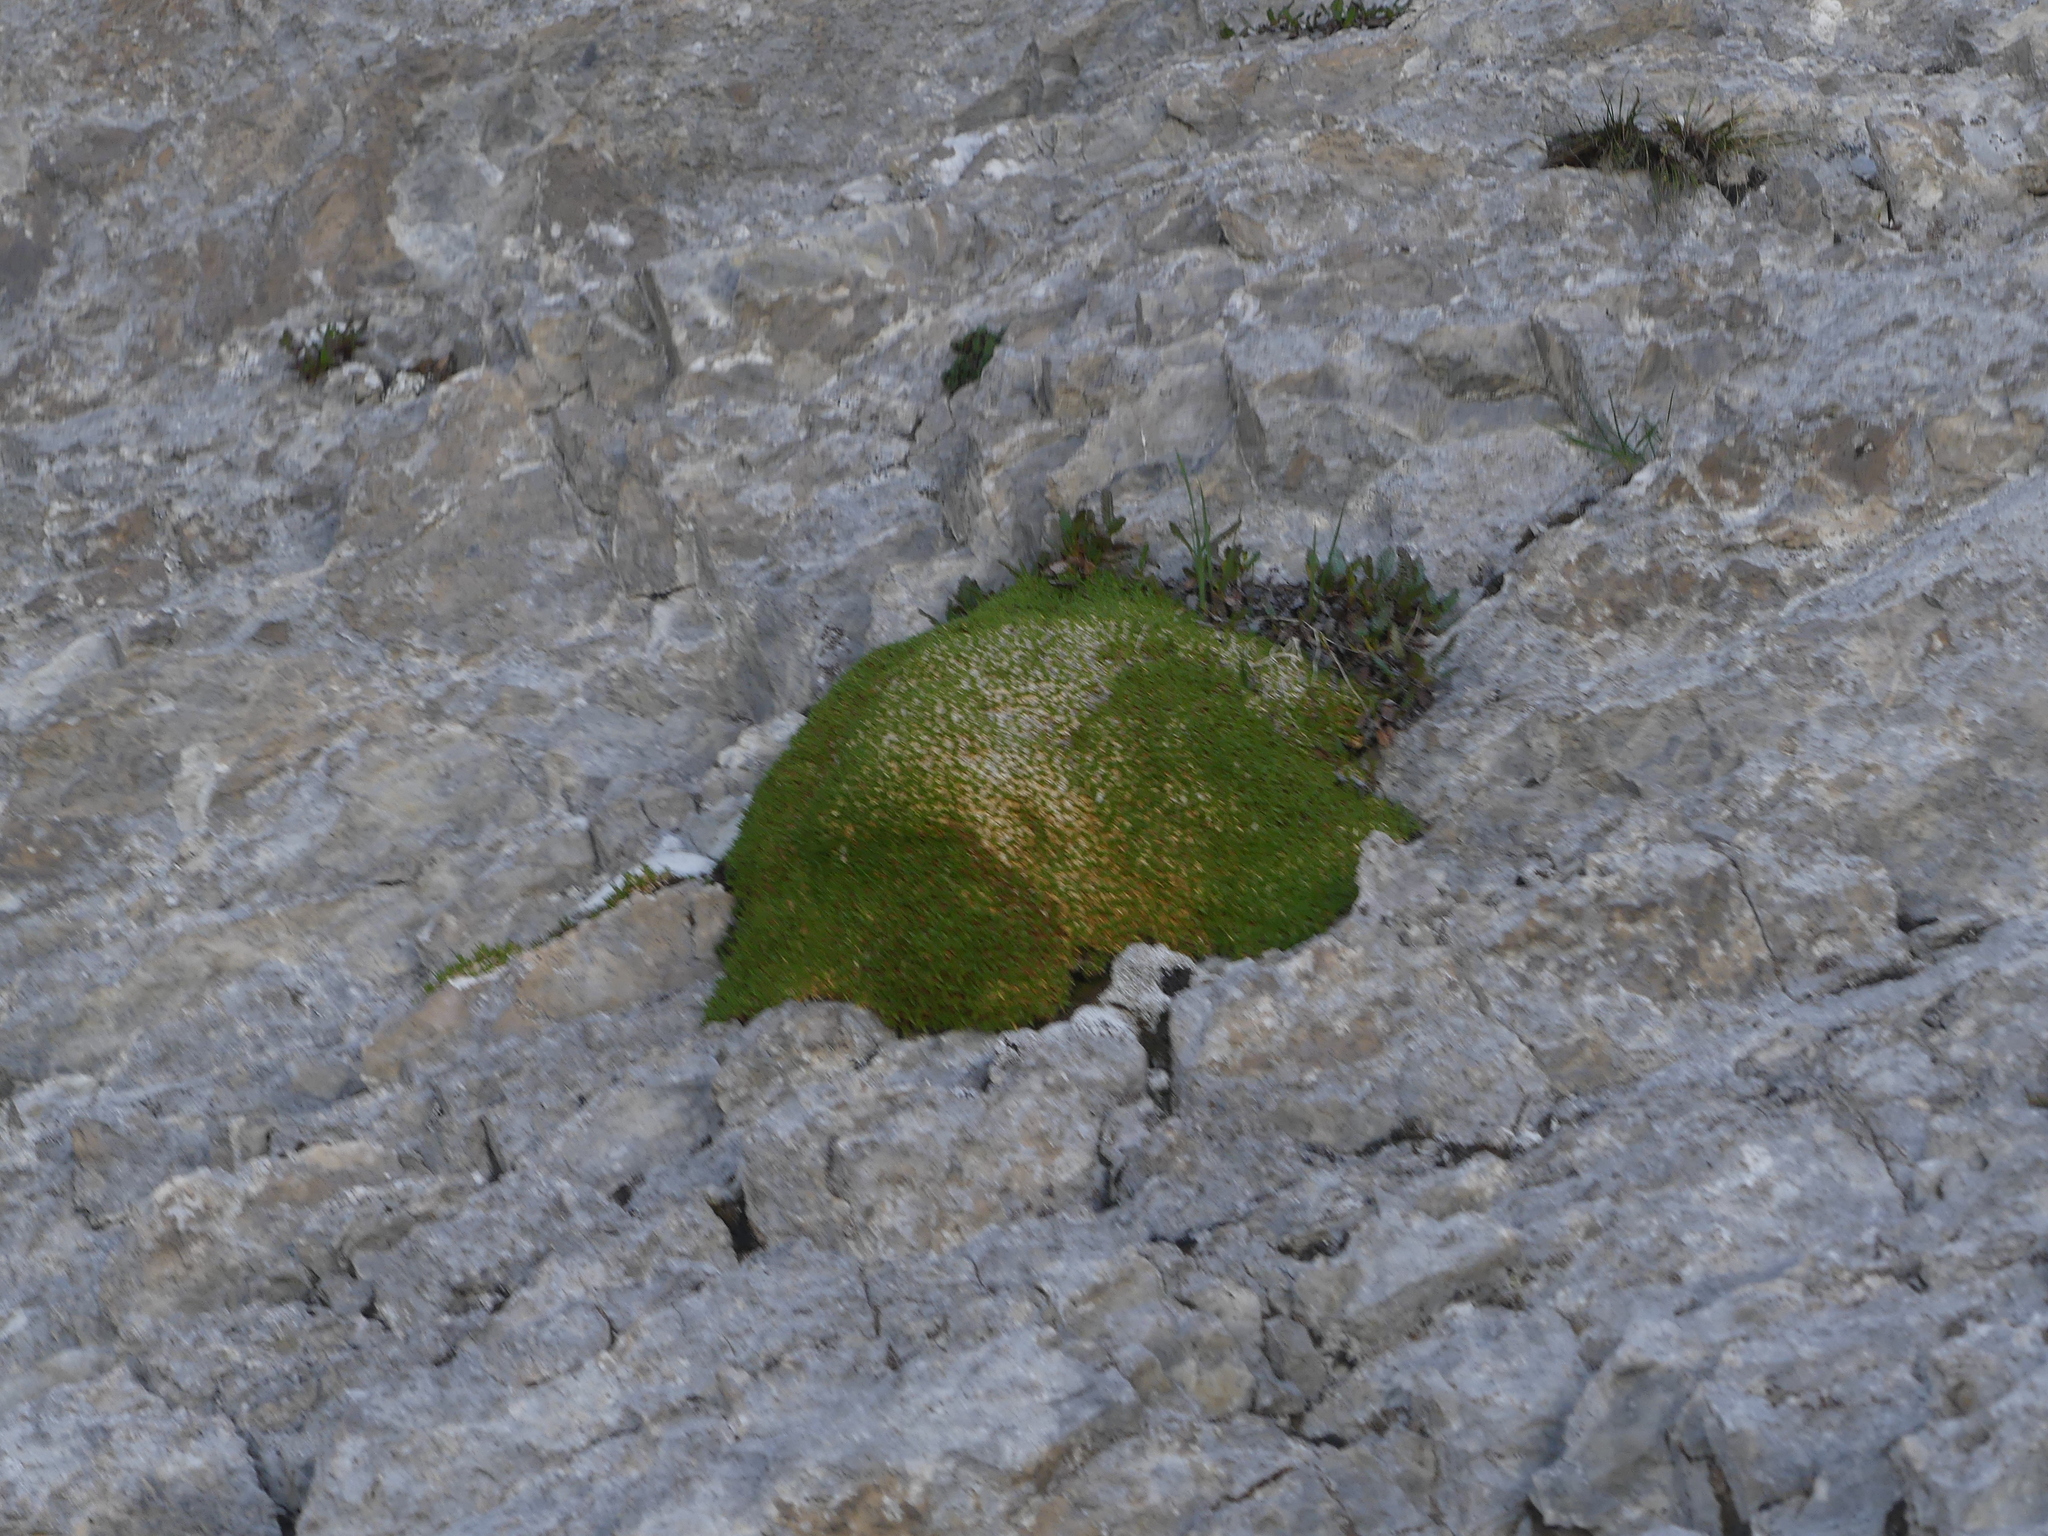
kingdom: Plantae
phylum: Tracheophyta
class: Magnoliopsida
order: Caryophyllales
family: Caryophyllaceae
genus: Silene
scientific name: Silene acaulis
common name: Moss campion
